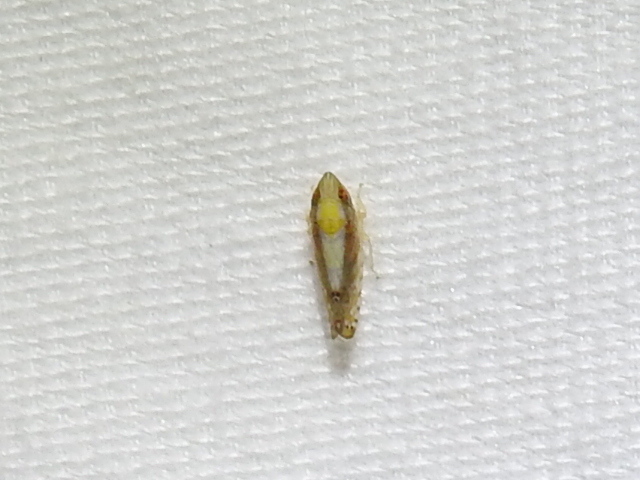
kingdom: Animalia
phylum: Arthropoda
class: Insecta
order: Hemiptera
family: Cicadellidae
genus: Scaphytopius
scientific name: Scaphytopius elegans
